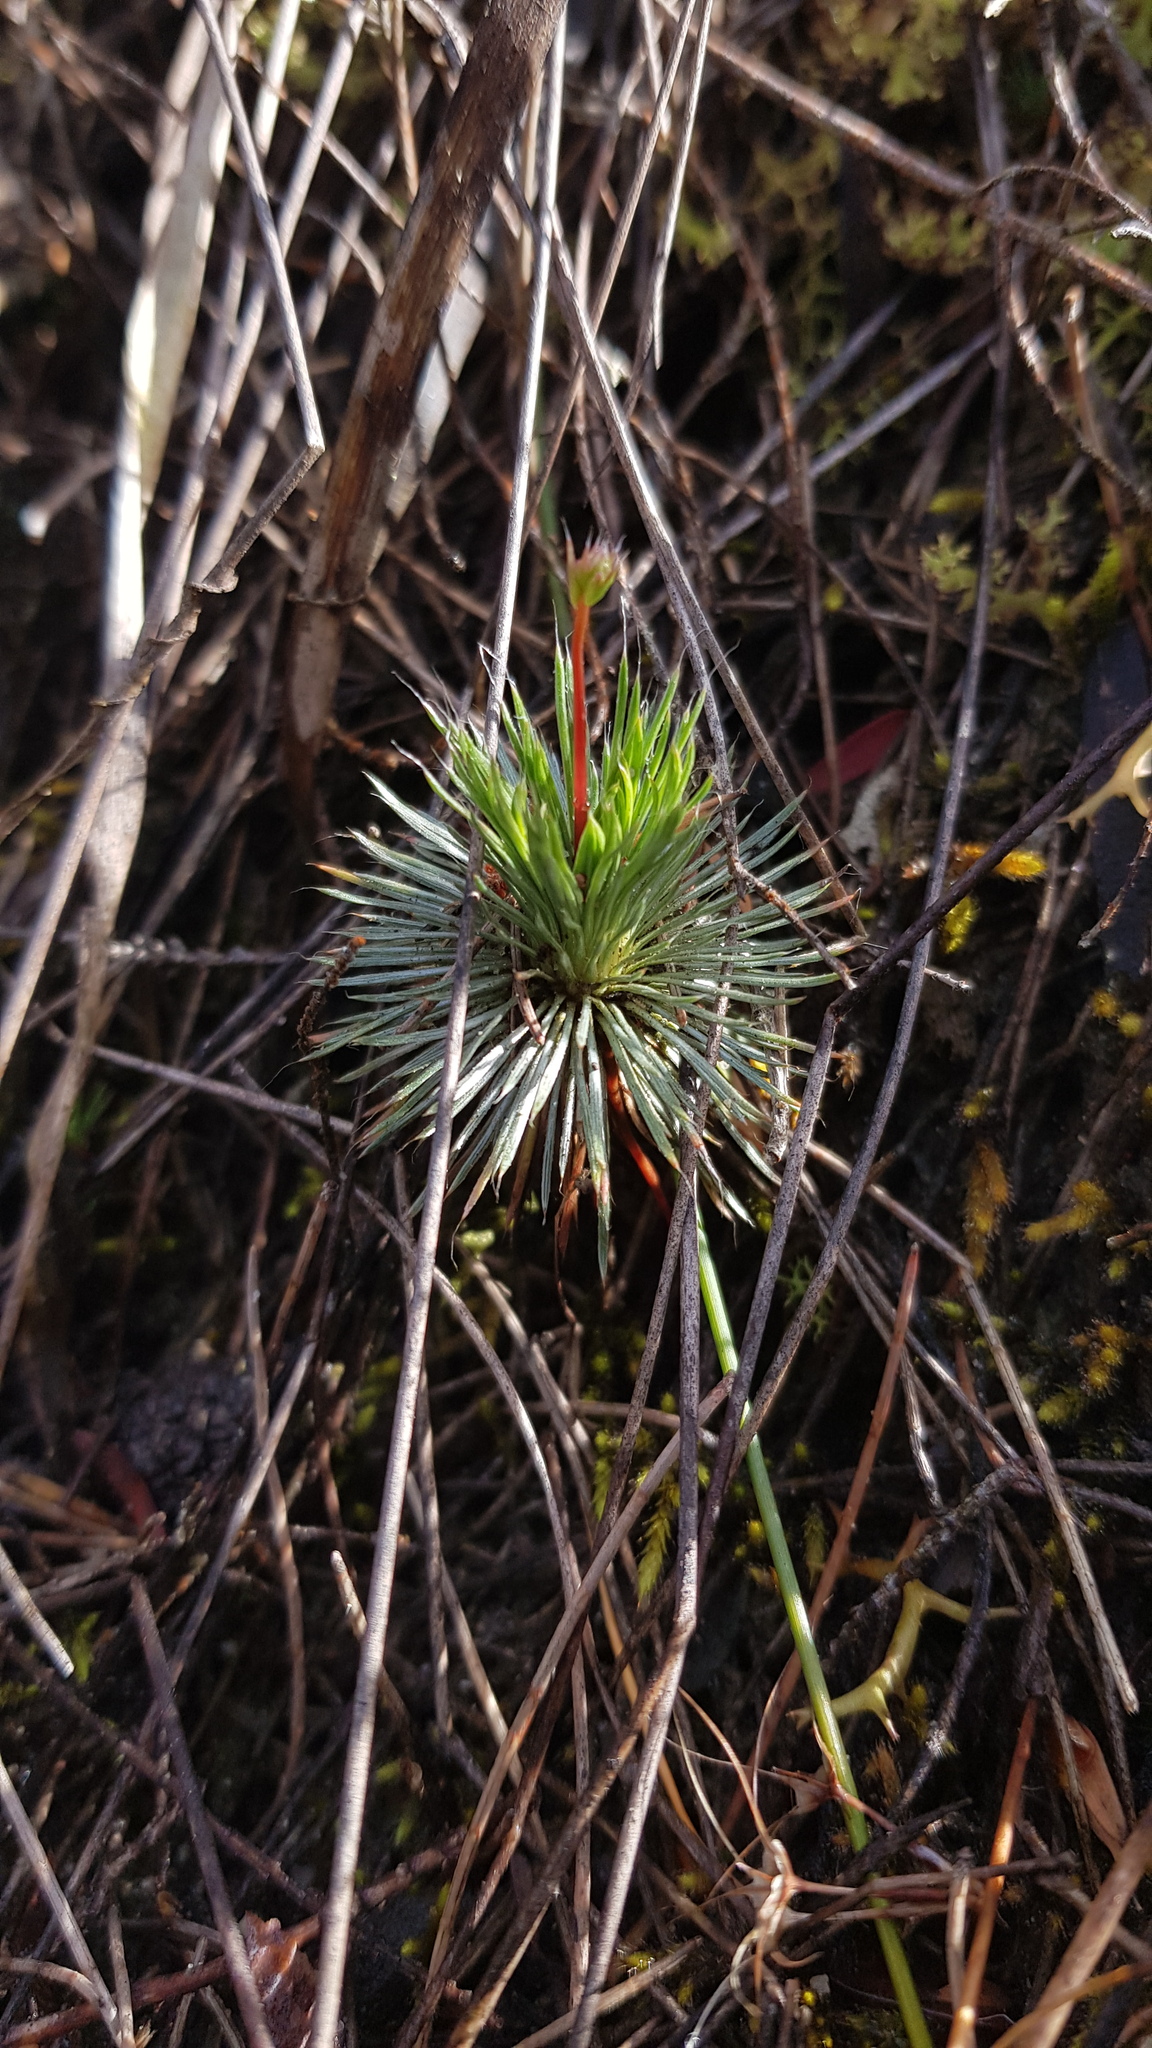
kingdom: Plantae
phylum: Tracheophyta
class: Magnoliopsida
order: Asterales
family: Stylidiaceae
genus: Stylidium
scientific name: Stylidium lineare
